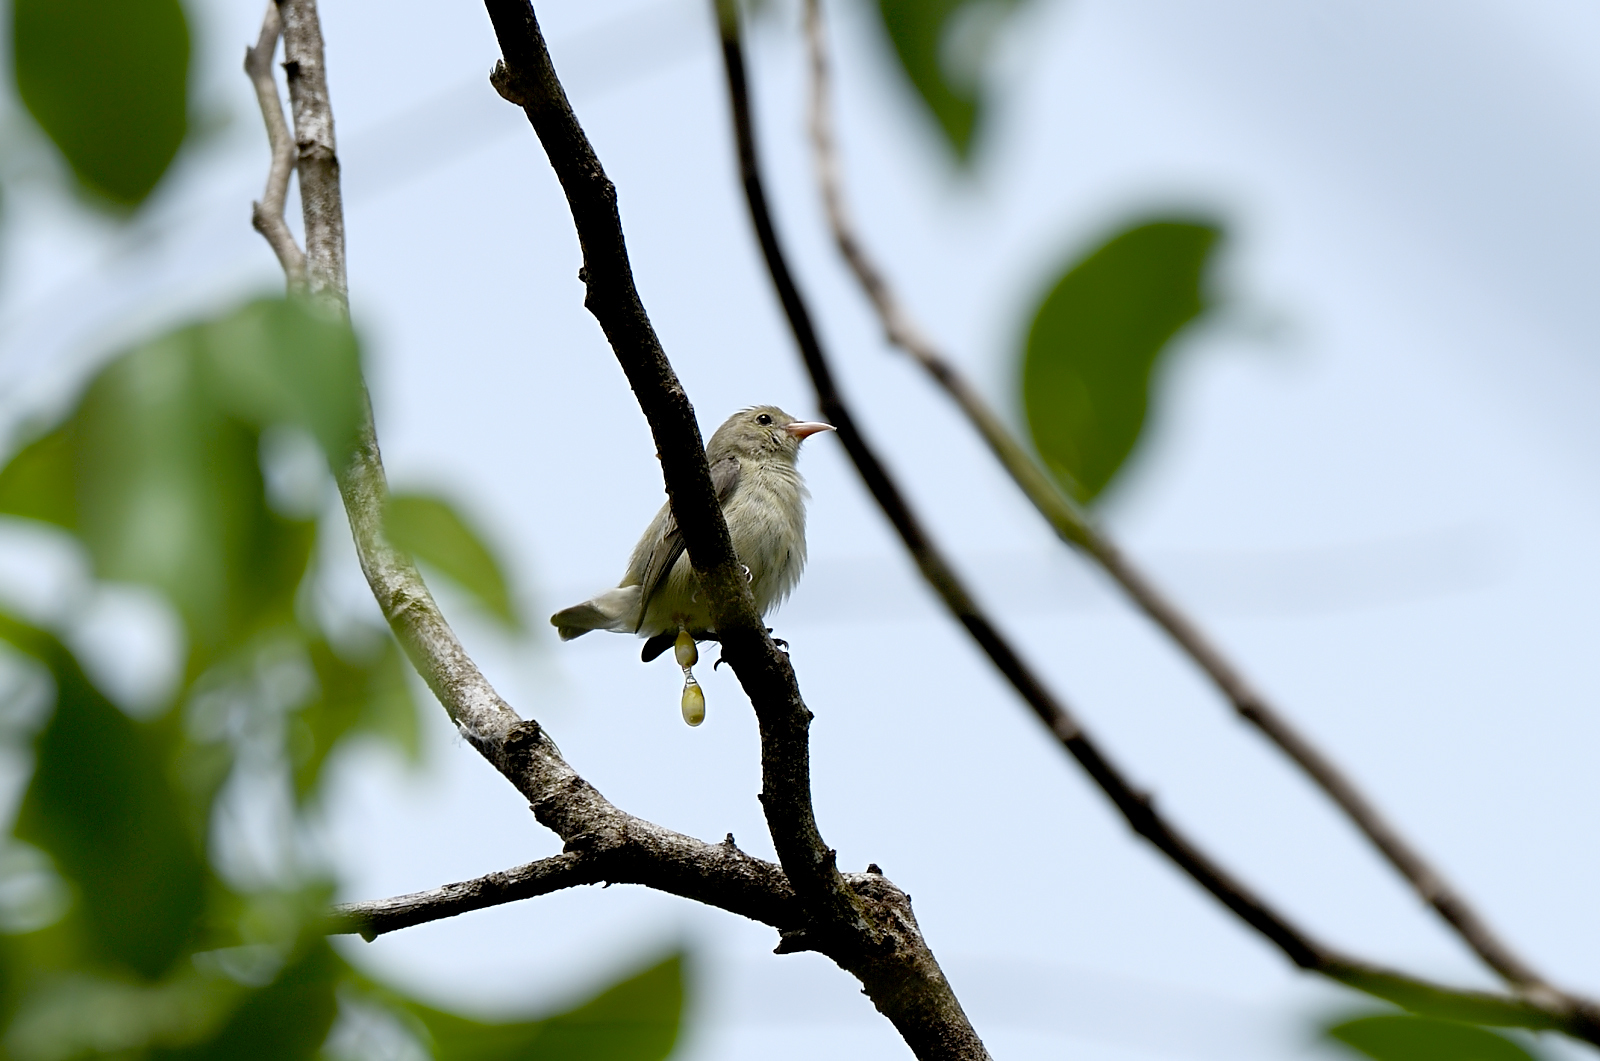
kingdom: Animalia
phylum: Chordata
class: Aves
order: Passeriformes
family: Dicaeidae
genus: Dicaeum
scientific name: Dicaeum erythrorhynchos
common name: Pale-billed flowerpecker
